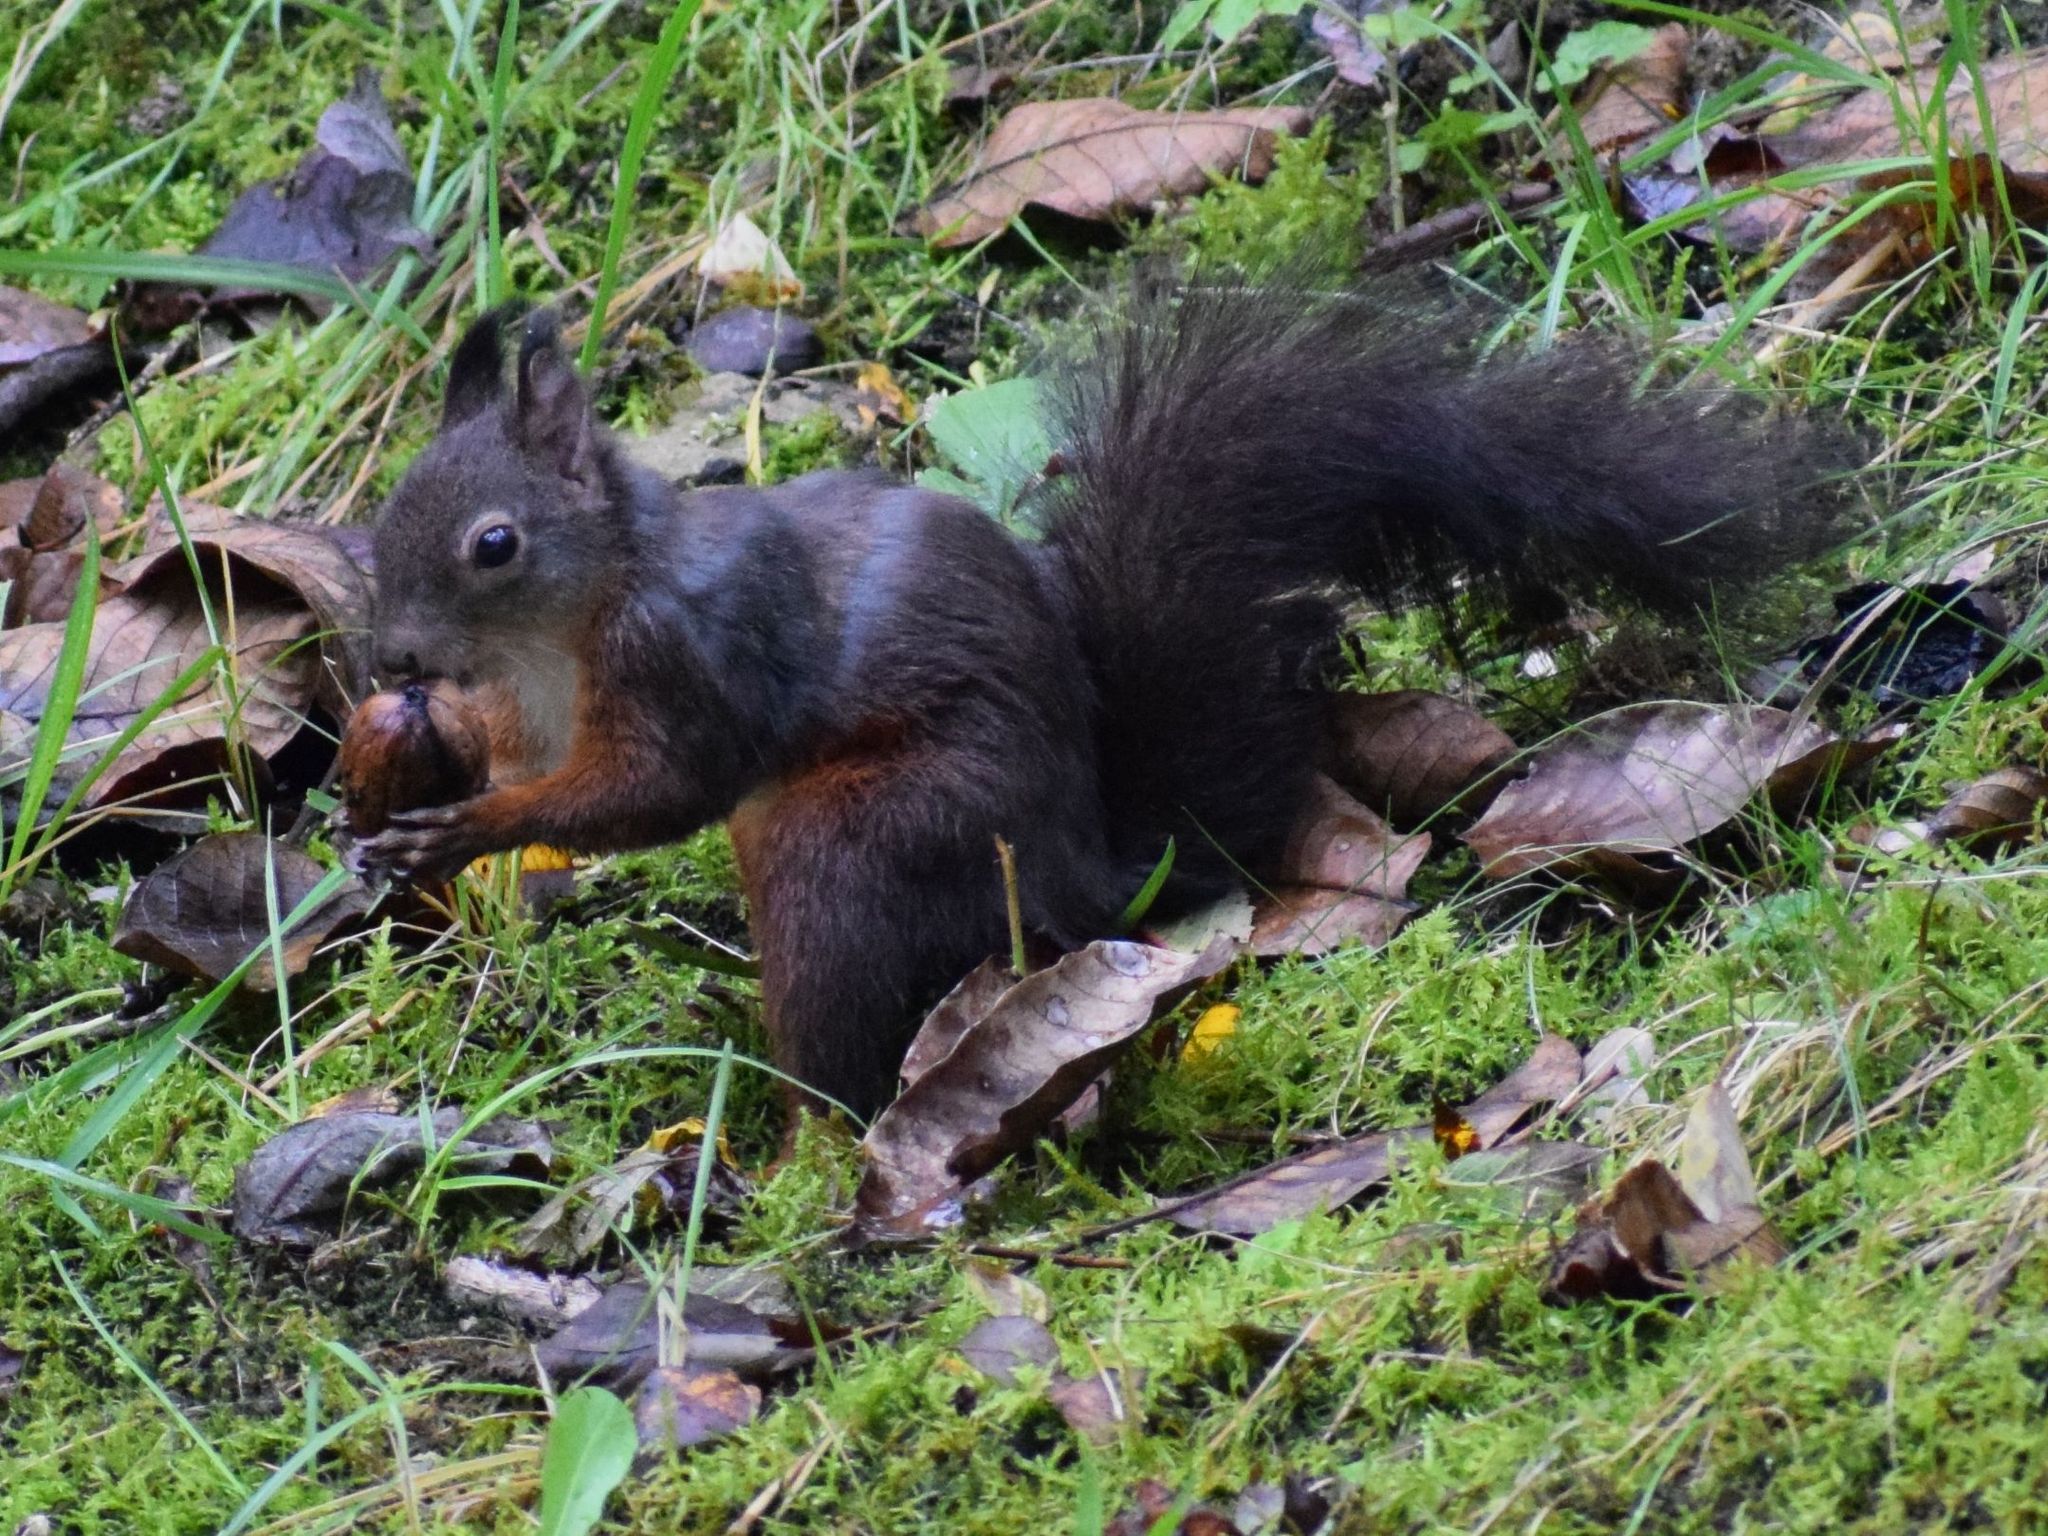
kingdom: Animalia
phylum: Chordata
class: Mammalia
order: Rodentia
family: Sciuridae
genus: Sciurus
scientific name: Sciurus vulgaris
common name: Eurasian red squirrel
